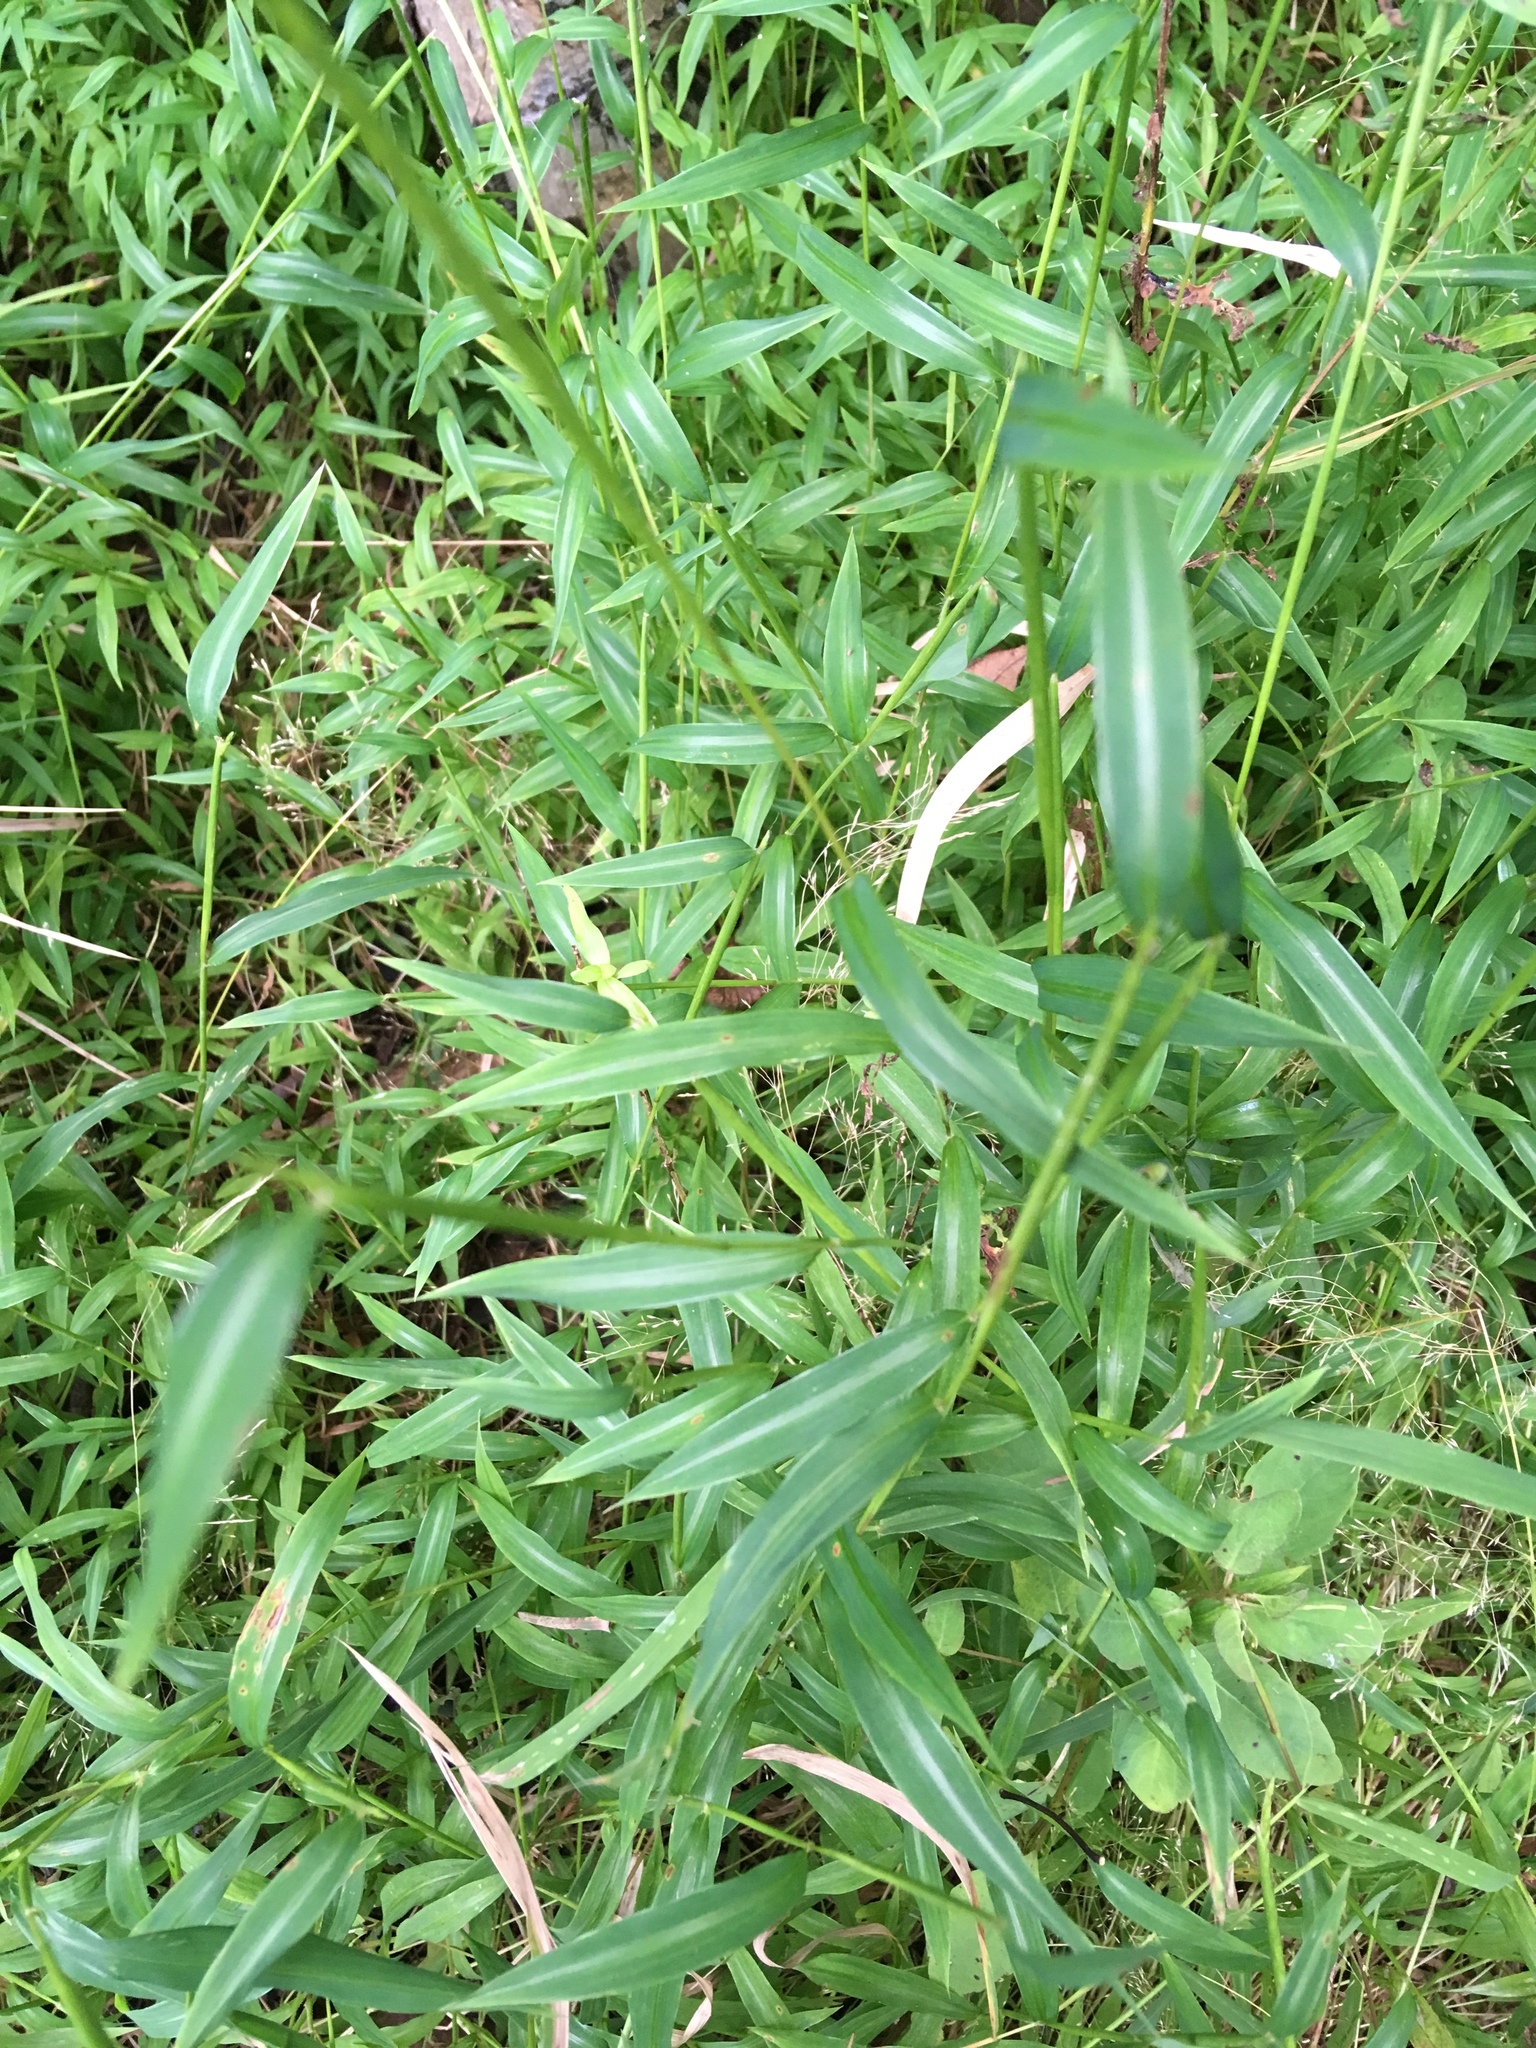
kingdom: Plantae
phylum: Tracheophyta
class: Liliopsida
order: Poales
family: Poaceae
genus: Microstegium
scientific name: Microstegium vimineum
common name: Japanese stiltgrass
